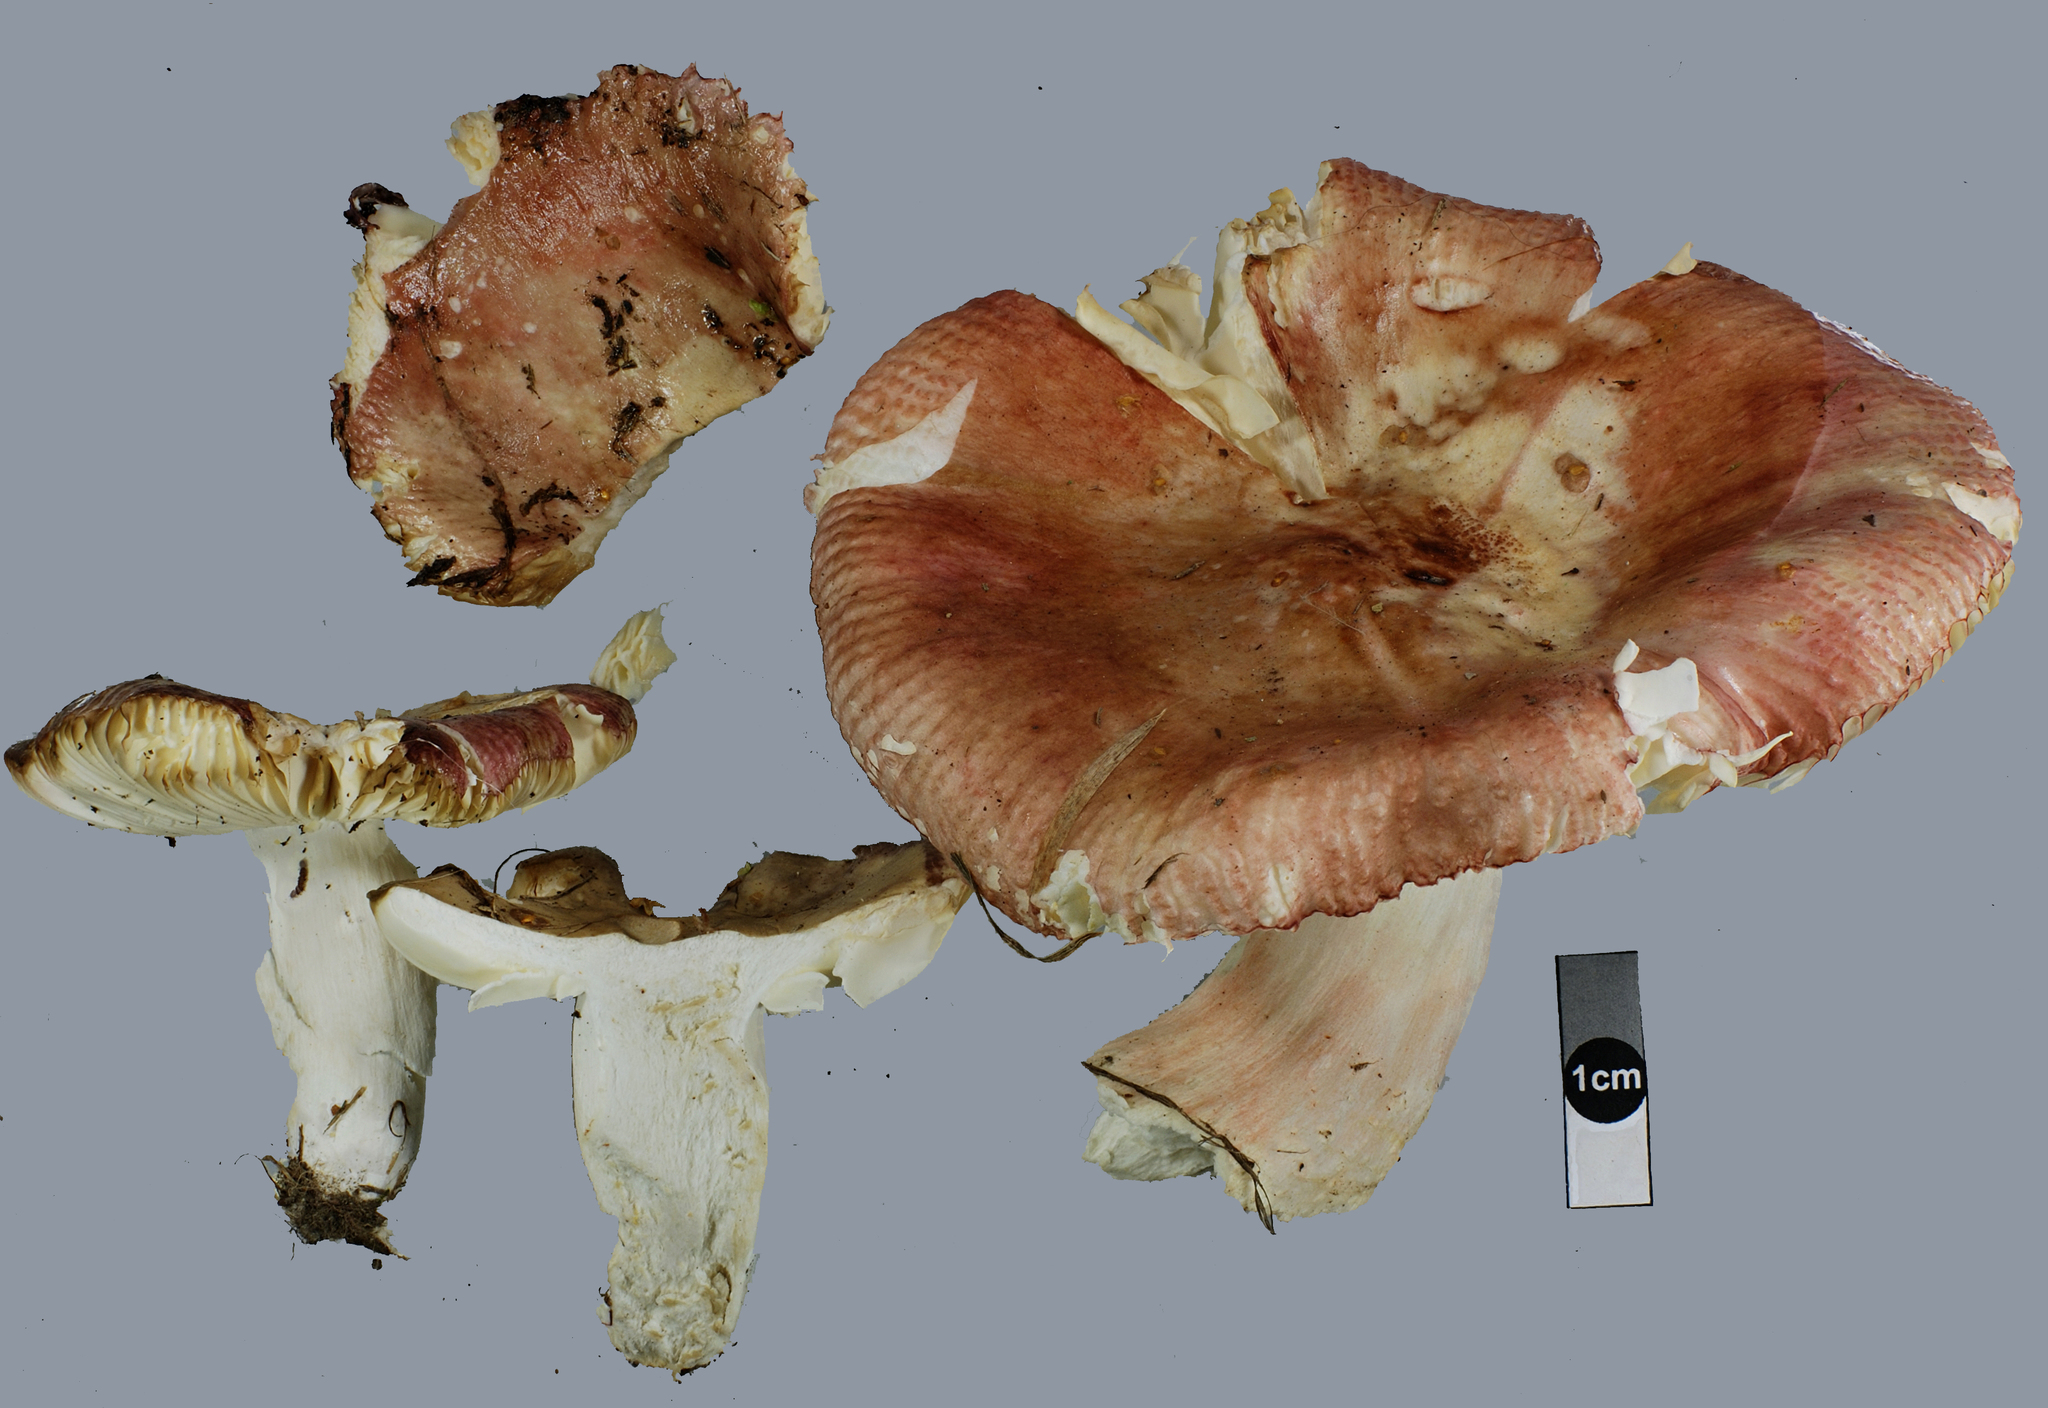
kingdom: Fungi
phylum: Basidiomycota
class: Agaricomycetes
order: Russulales
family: Russulaceae
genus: Russula
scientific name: Russula nitida
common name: Purple swamp brittlegill
